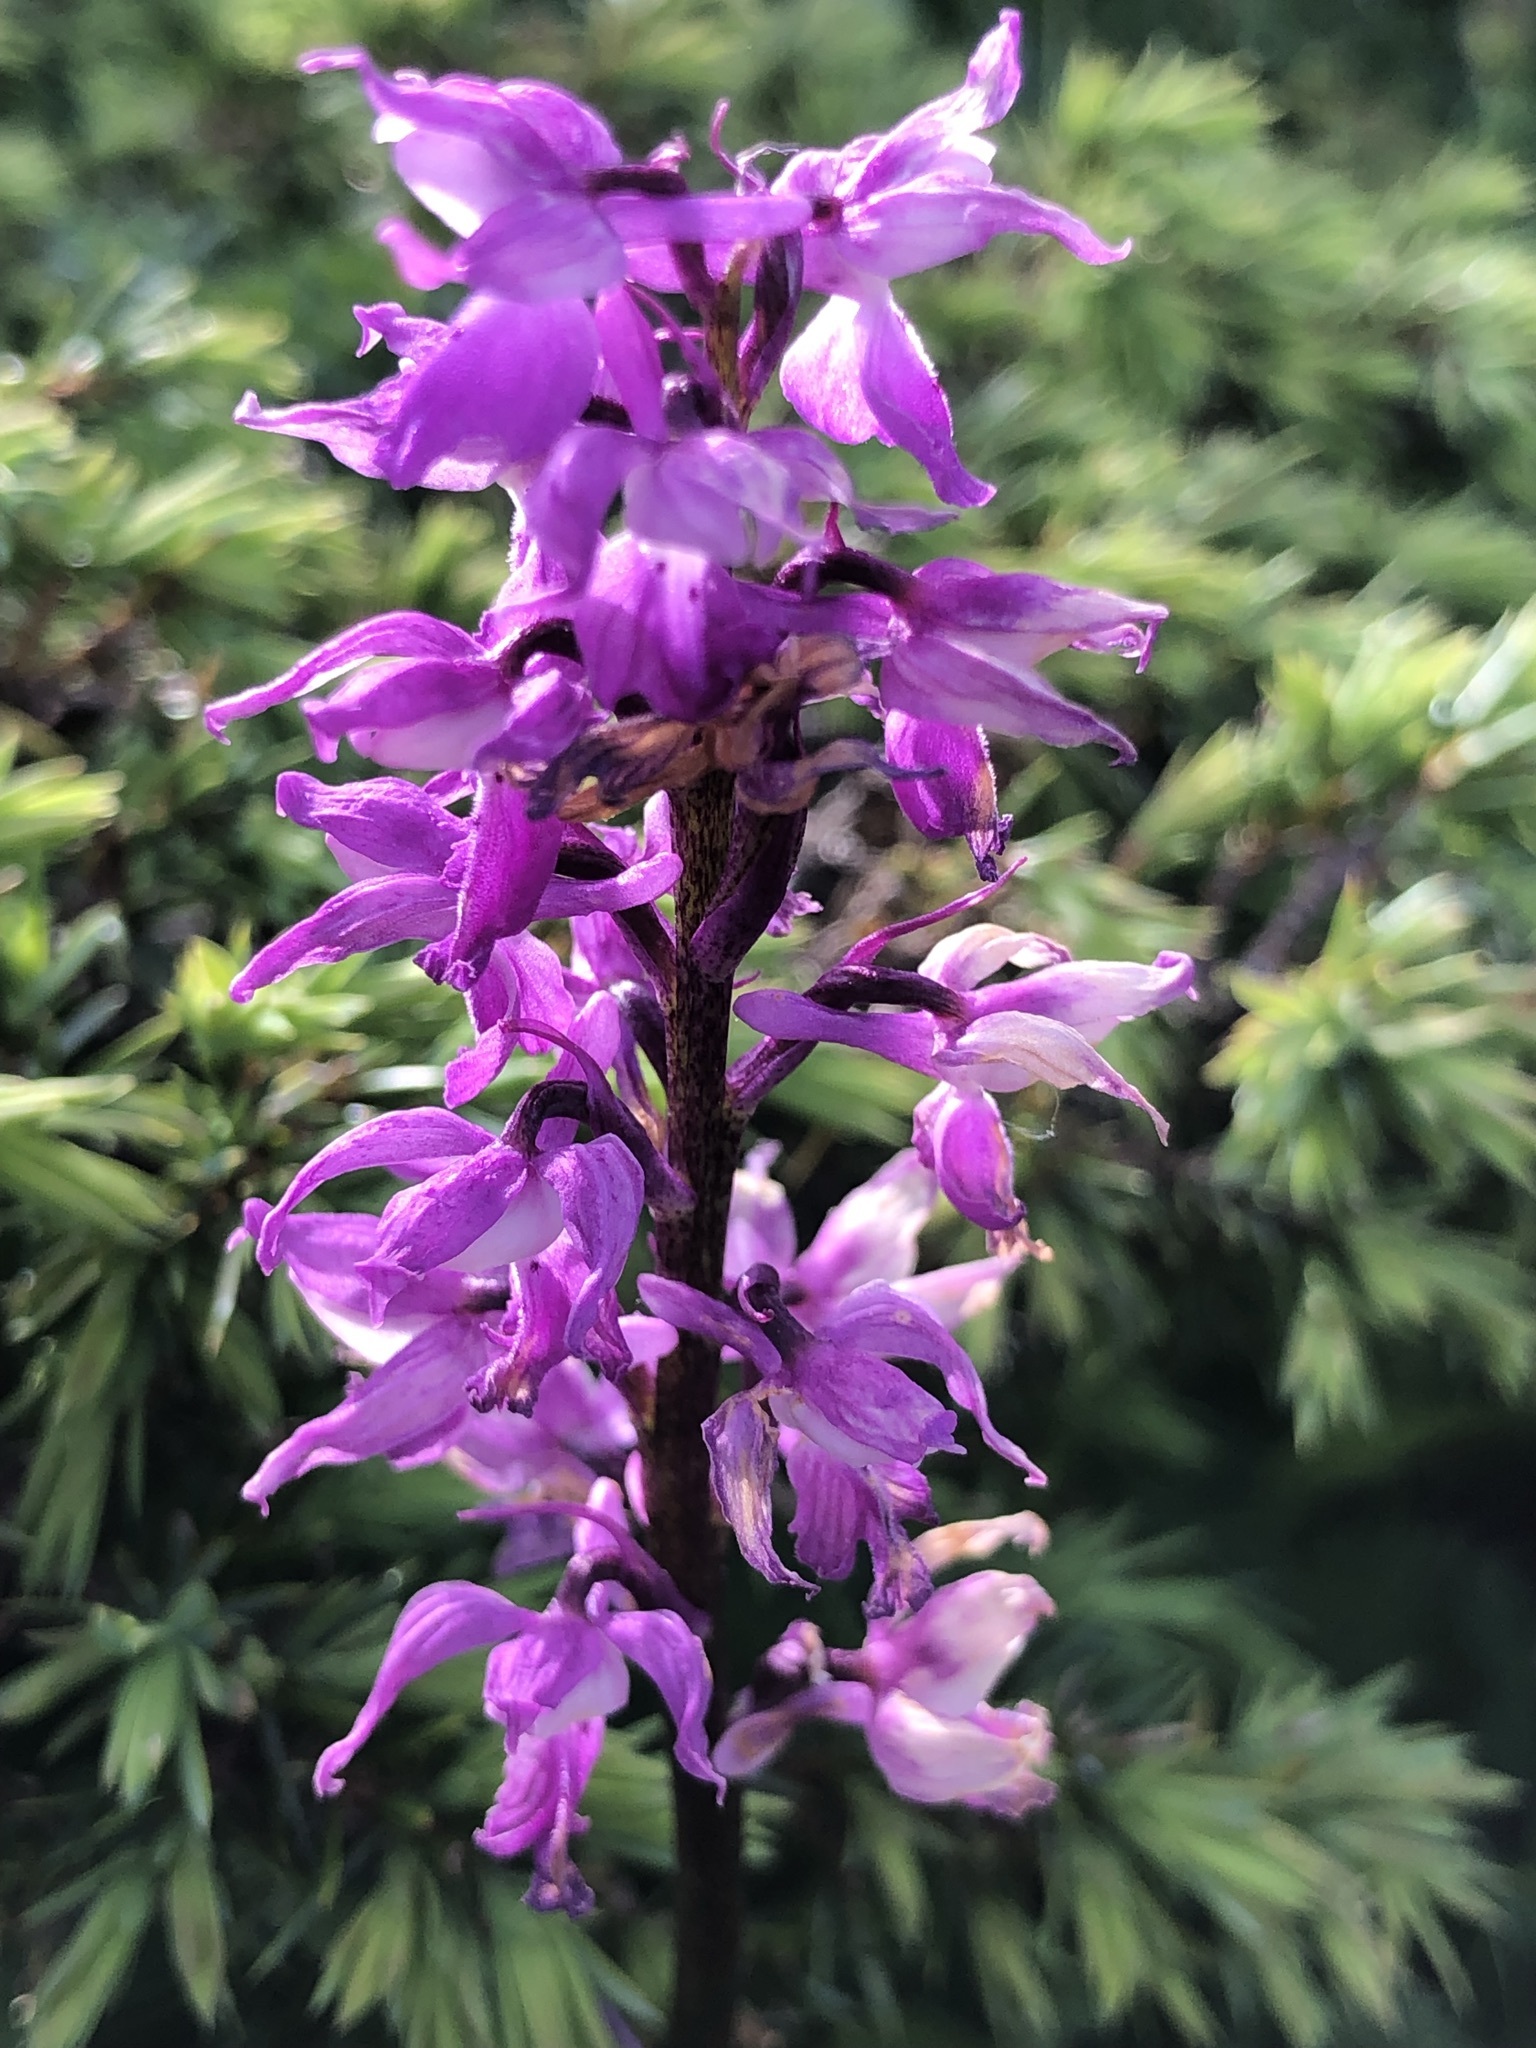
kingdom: Plantae
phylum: Tracheophyta
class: Liliopsida
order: Asparagales
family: Orchidaceae
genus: Orchis
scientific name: Orchis mascula
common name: Early-purple orchid
